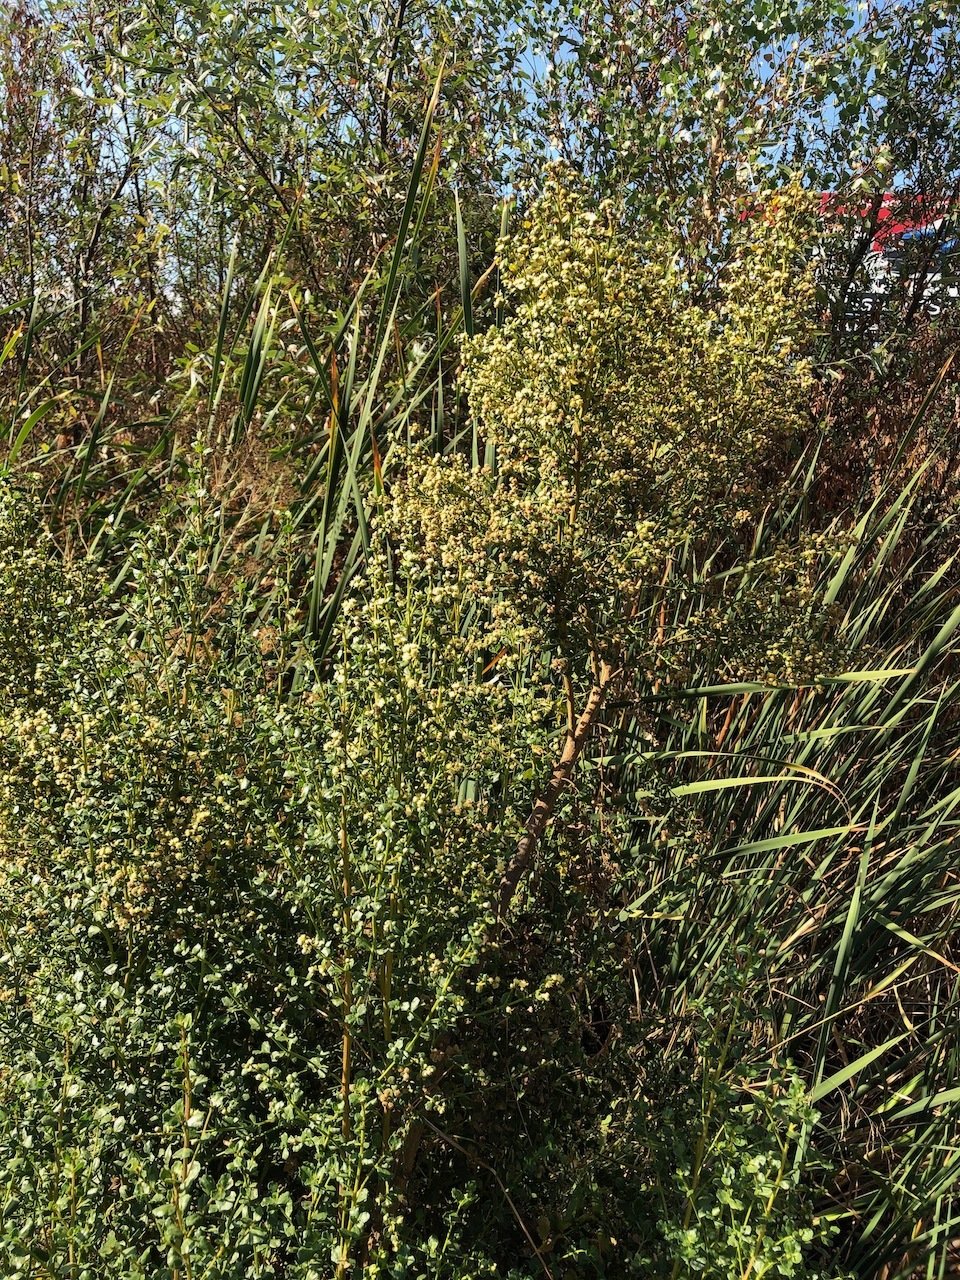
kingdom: Plantae
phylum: Tracheophyta
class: Magnoliopsida
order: Asterales
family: Asteraceae
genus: Baccharis
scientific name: Baccharis pilularis
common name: Coyotebrush
